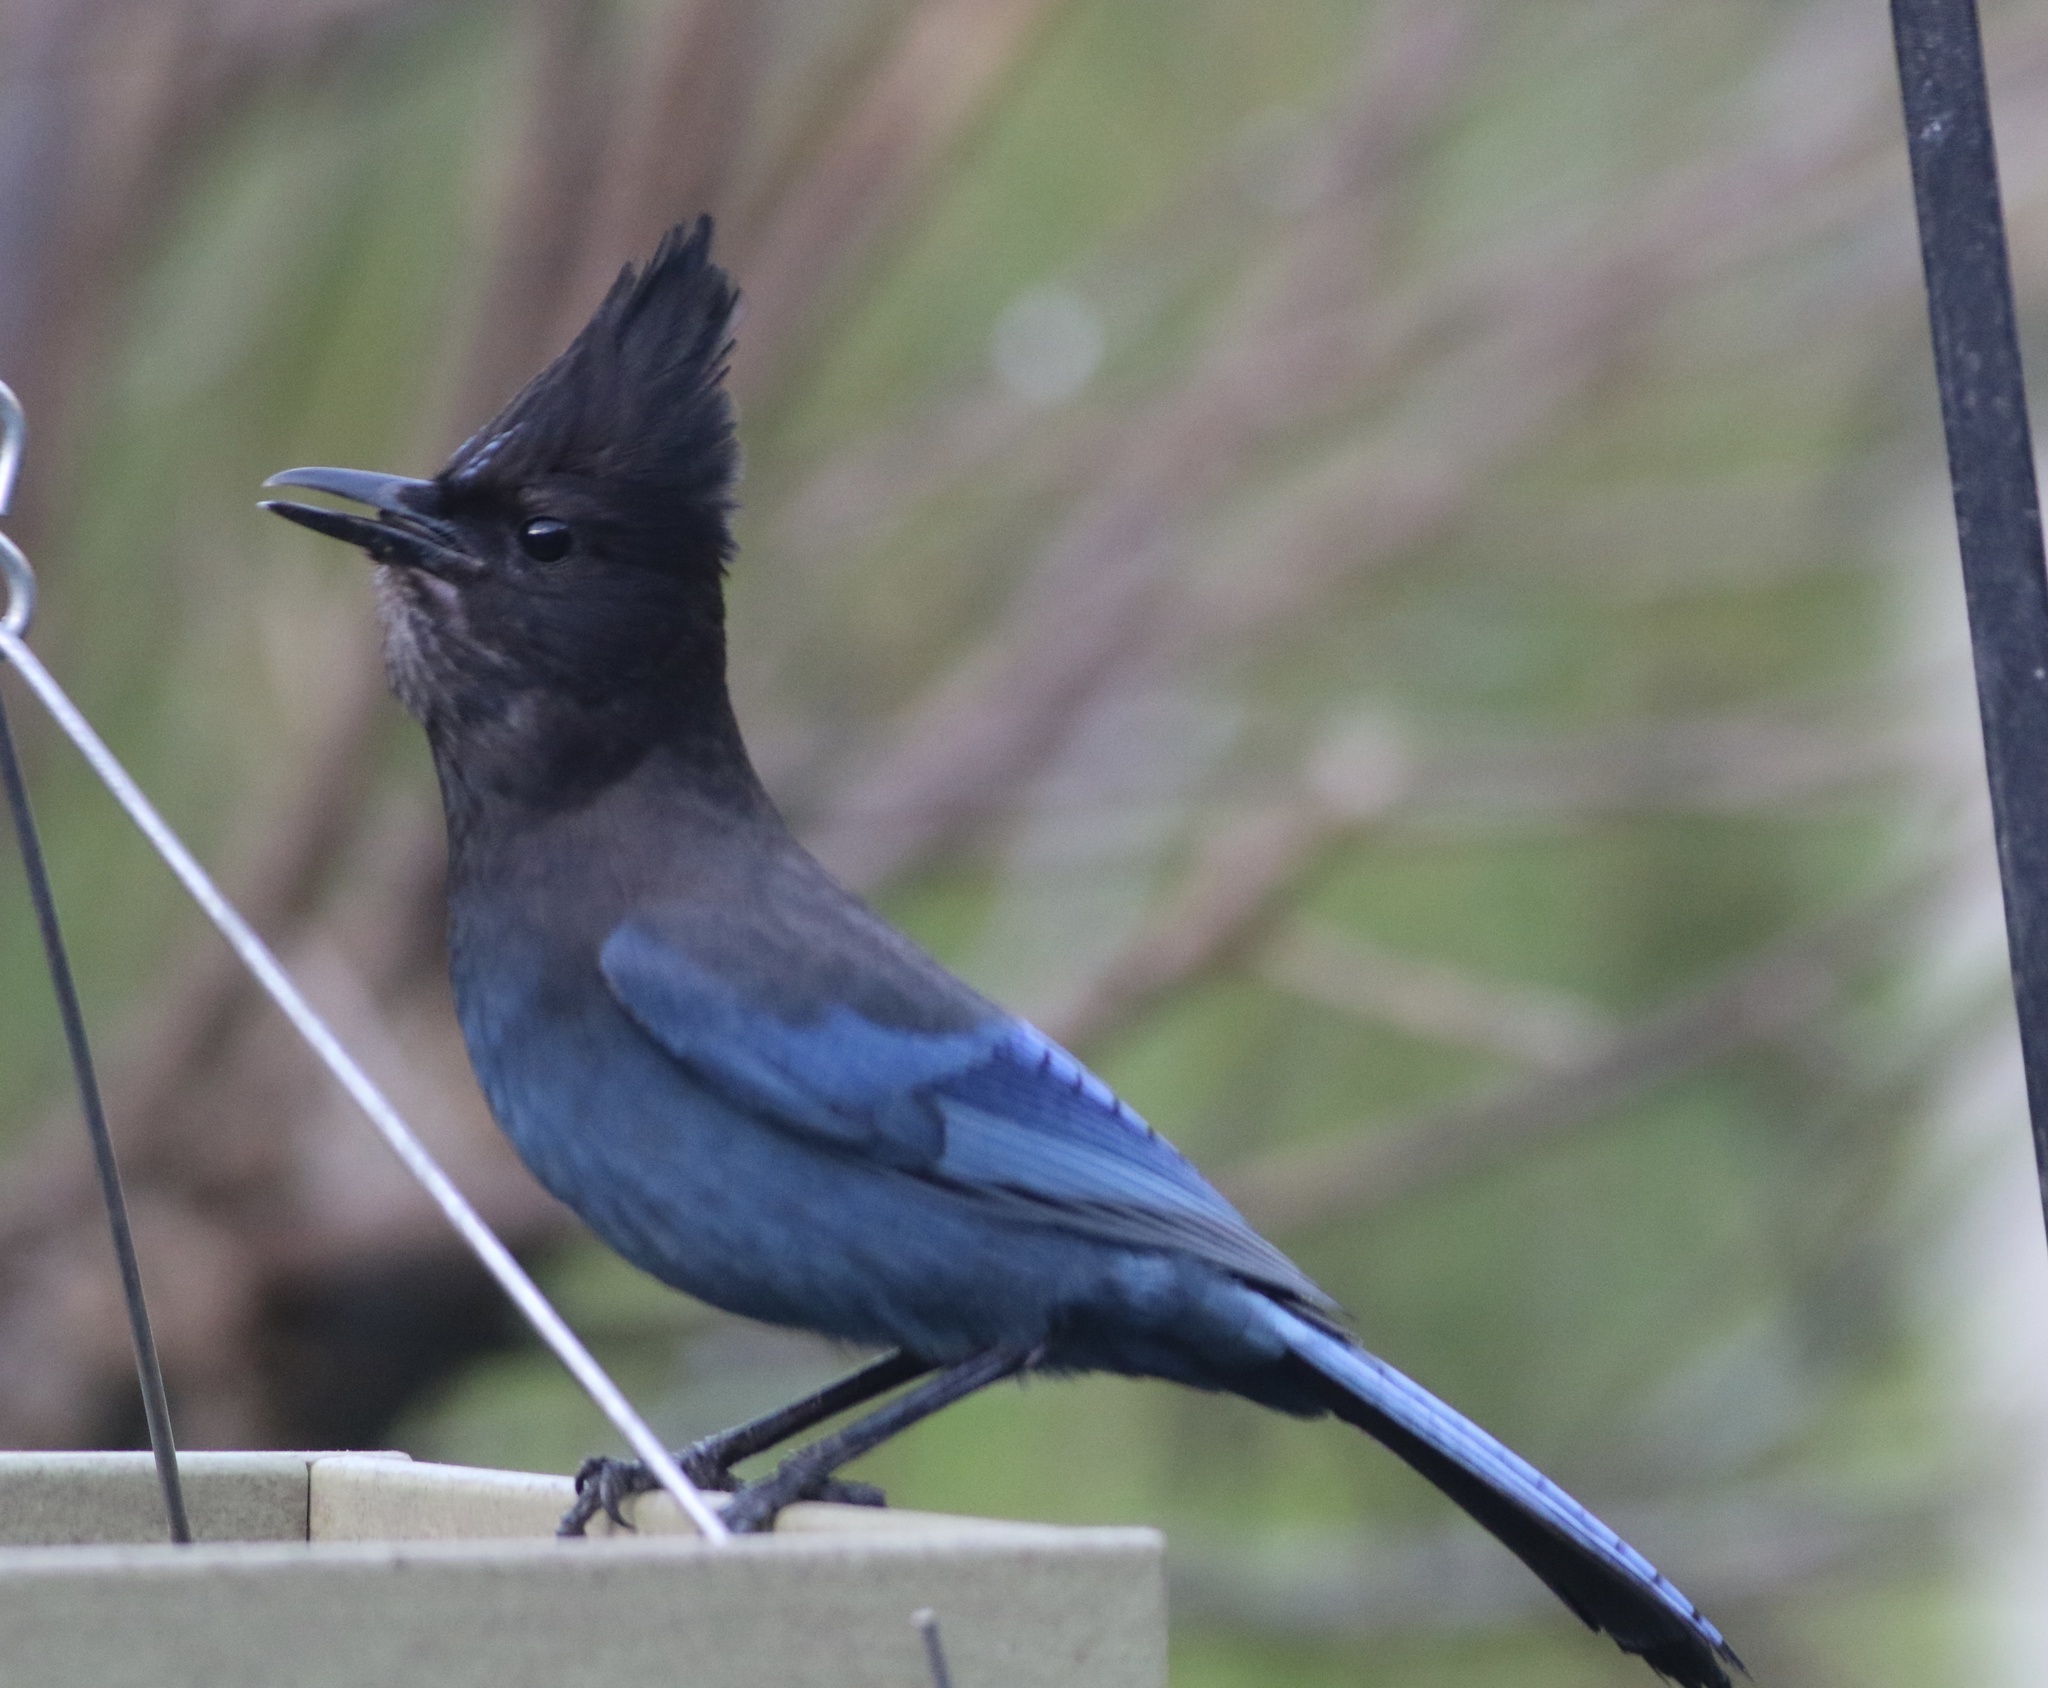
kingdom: Animalia
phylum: Chordata
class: Aves
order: Passeriformes
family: Corvidae
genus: Cyanocitta
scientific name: Cyanocitta stelleri
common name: Steller's jay
